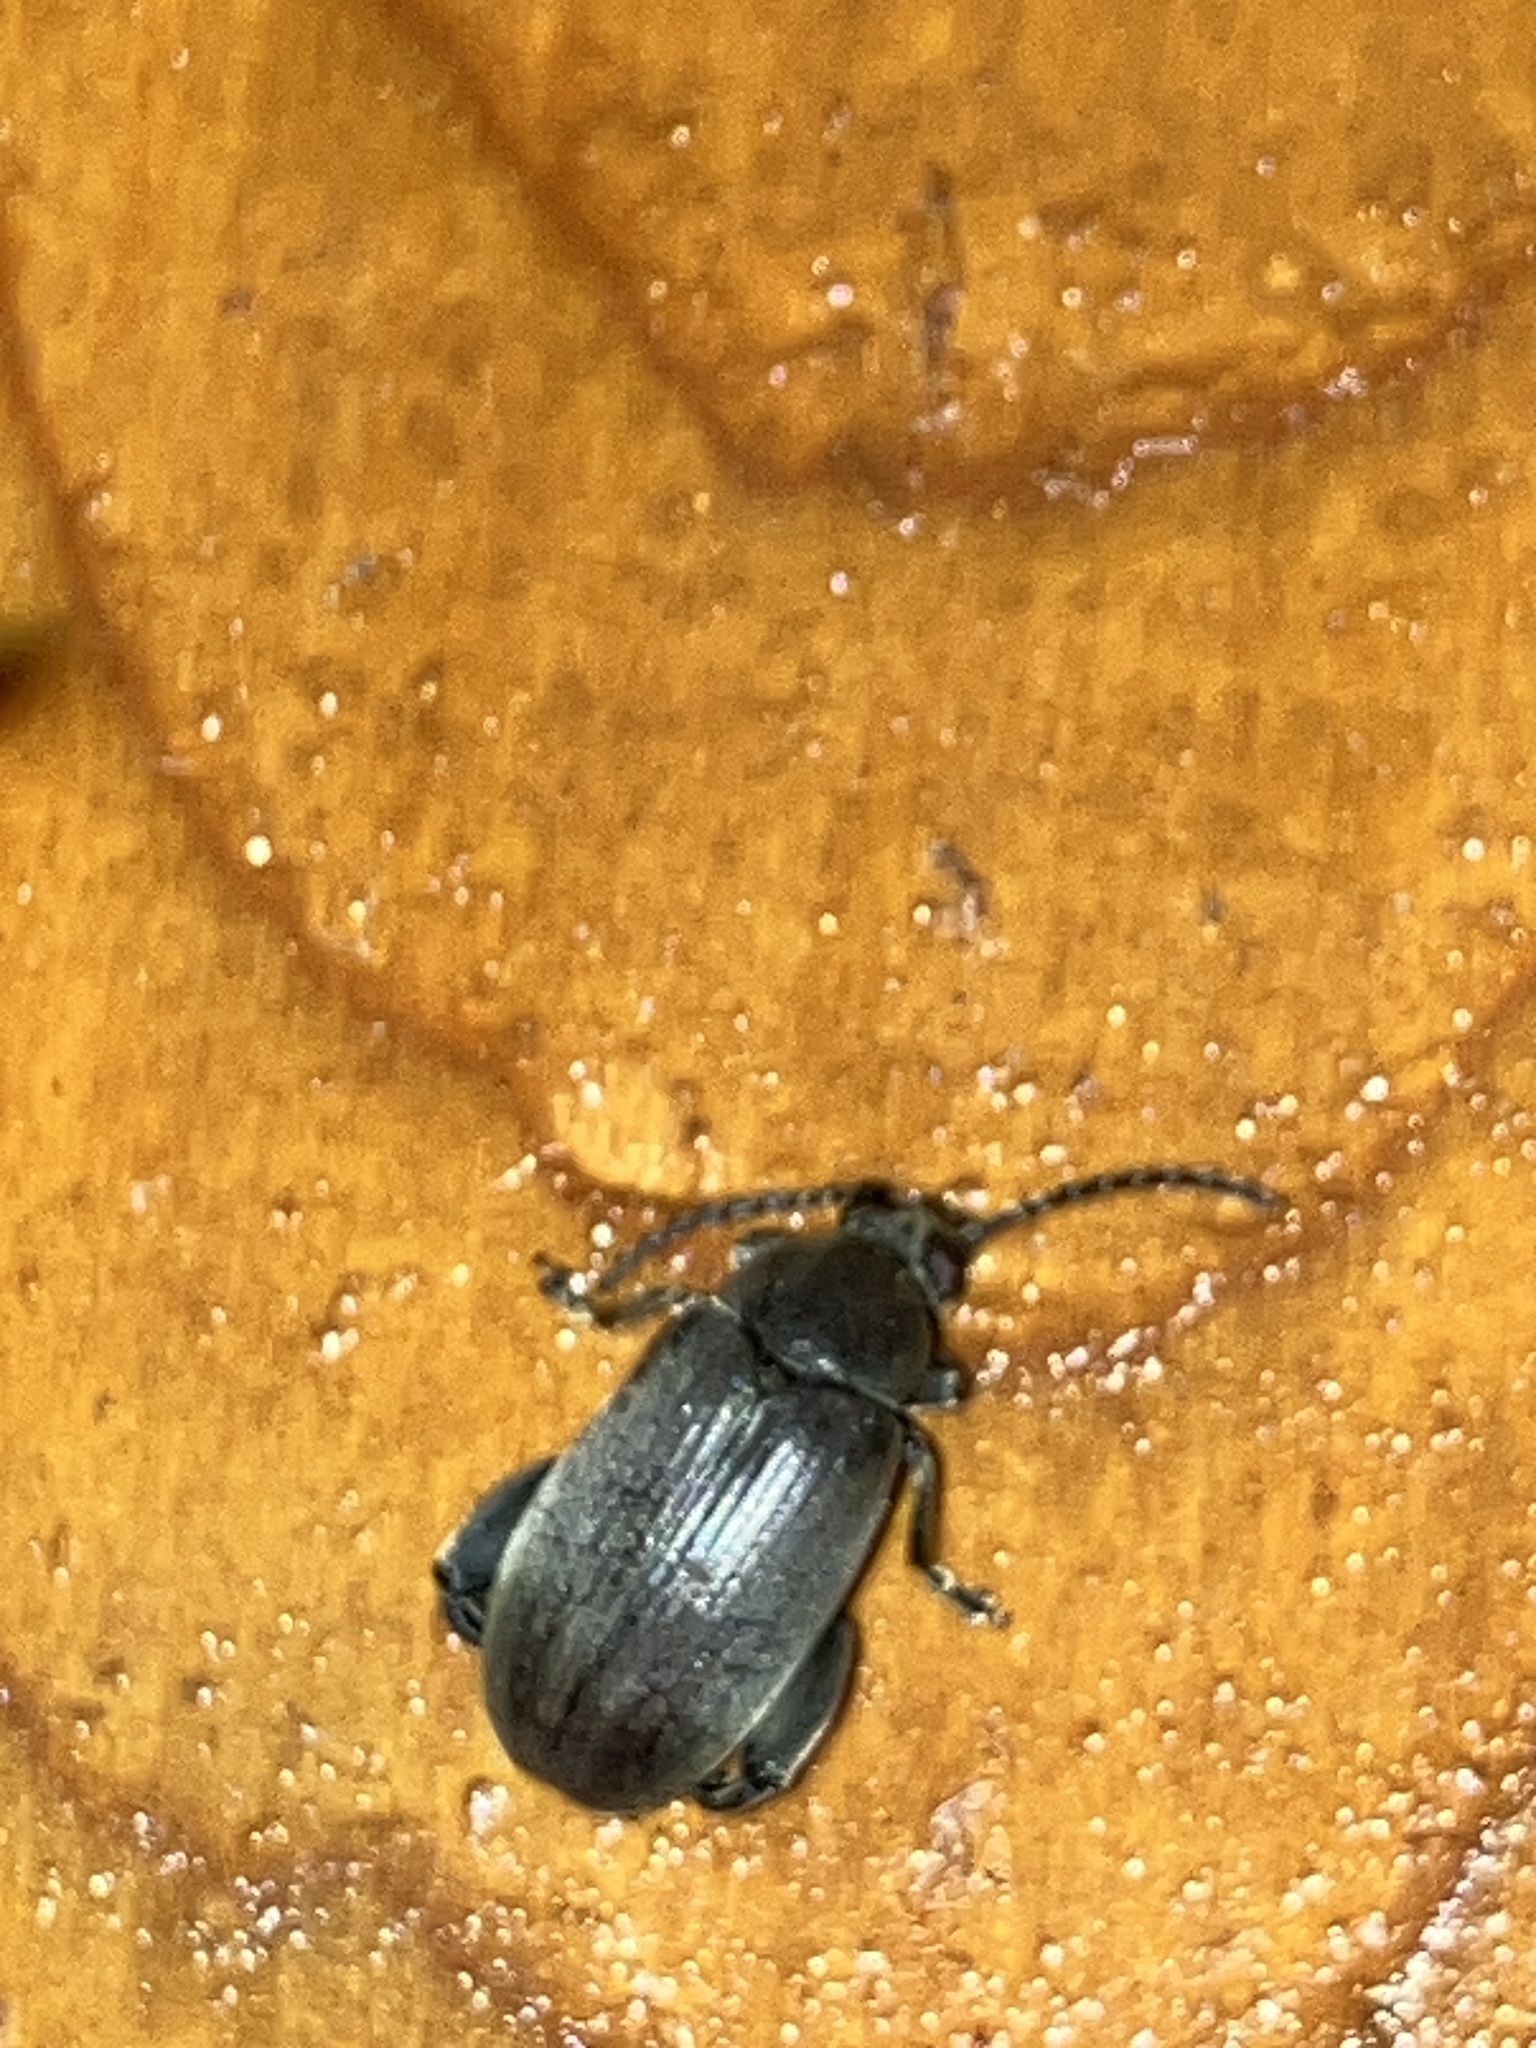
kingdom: Animalia
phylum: Arthropoda
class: Insecta
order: Coleoptera
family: Chrysomelidae
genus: Caryobruchus
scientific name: Caryobruchus gleditsiae
